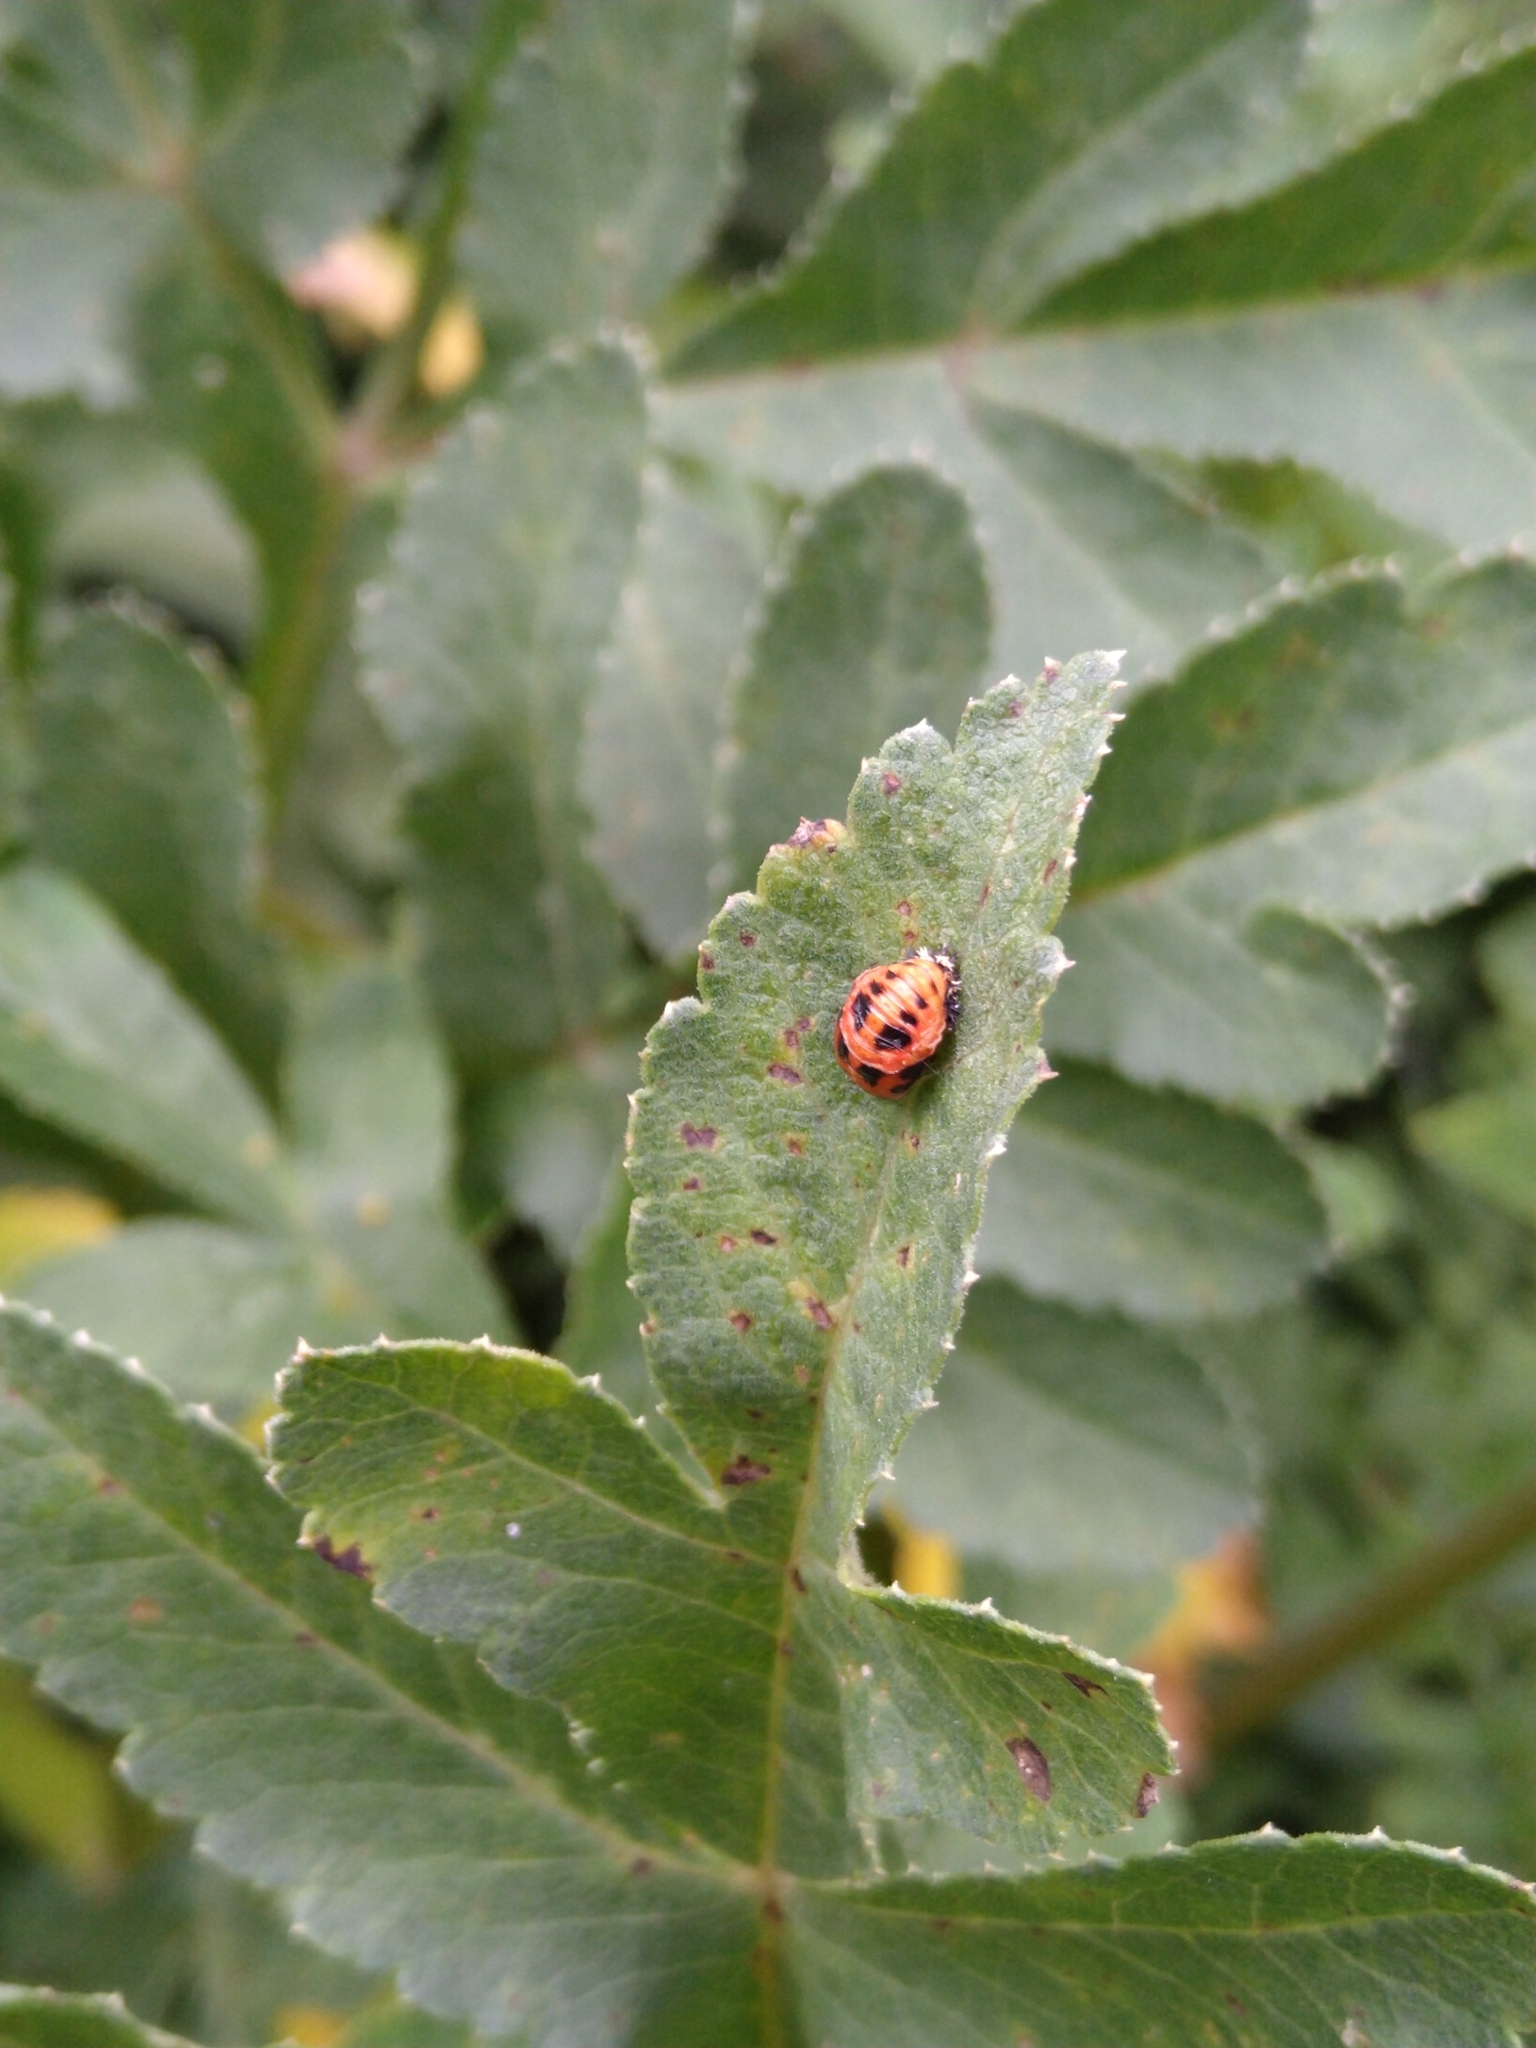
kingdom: Animalia
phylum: Arthropoda
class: Insecta
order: Coleoptera
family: Coccinellidae
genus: Harmonia
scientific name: Harmonia axyridis
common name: Harlequin ladybird
